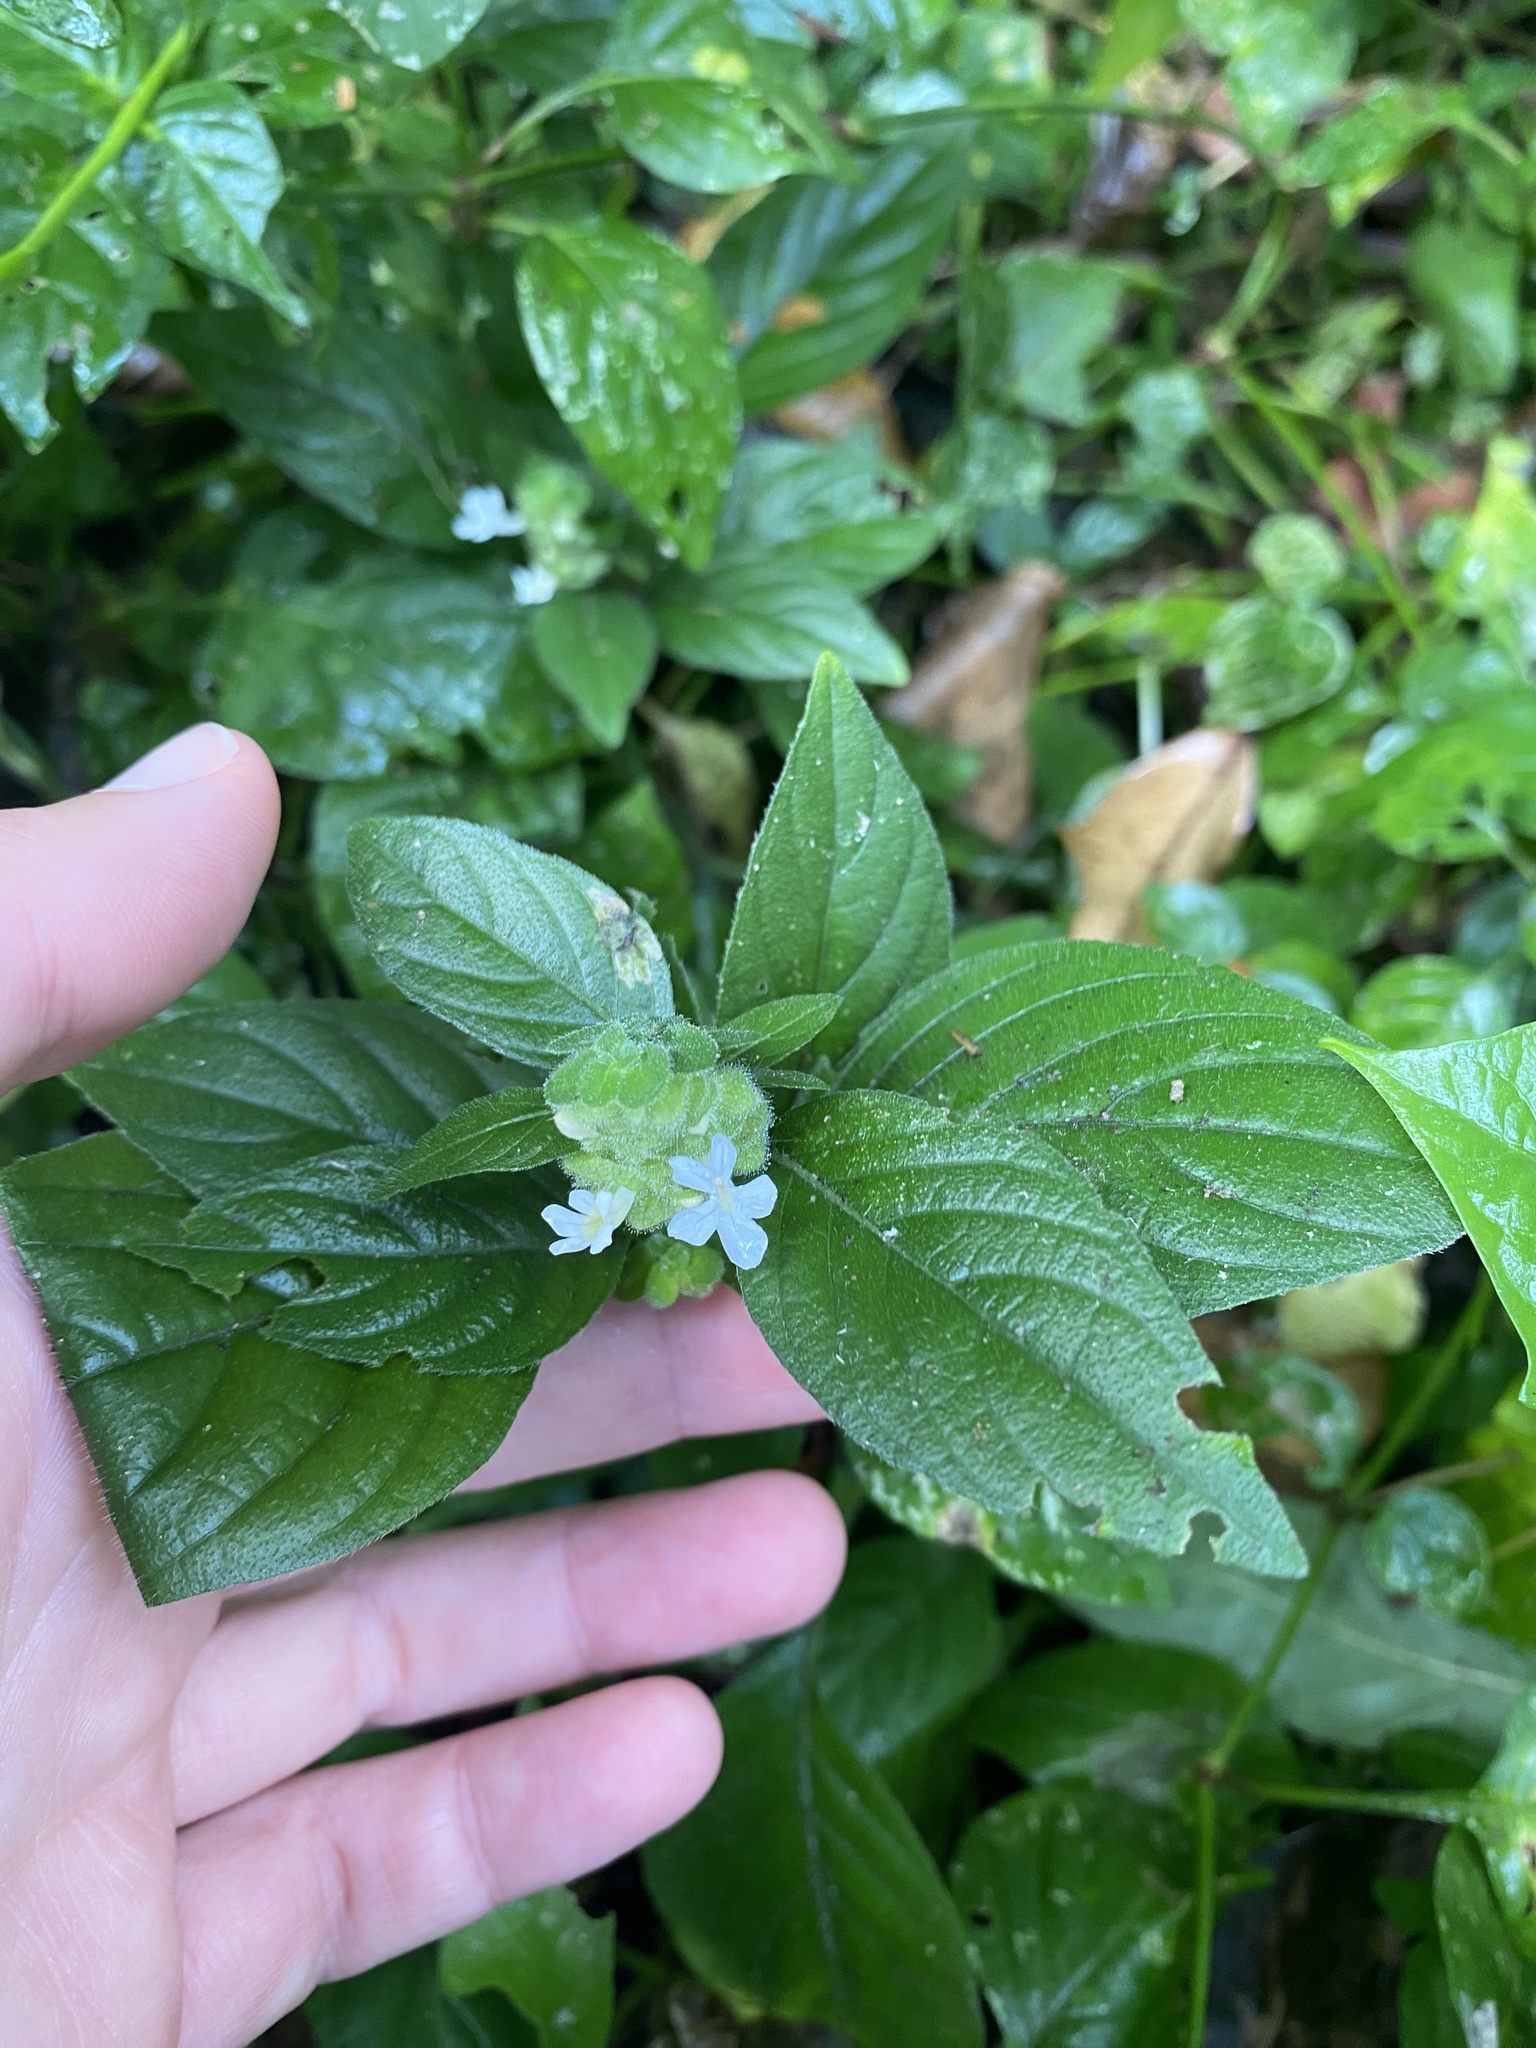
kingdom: Plantae
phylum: Tracheophyta
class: Magnoliopsida
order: Lamiales
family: Acanthaceae
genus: Phaulopsis
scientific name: Phaulopsis imbricata
